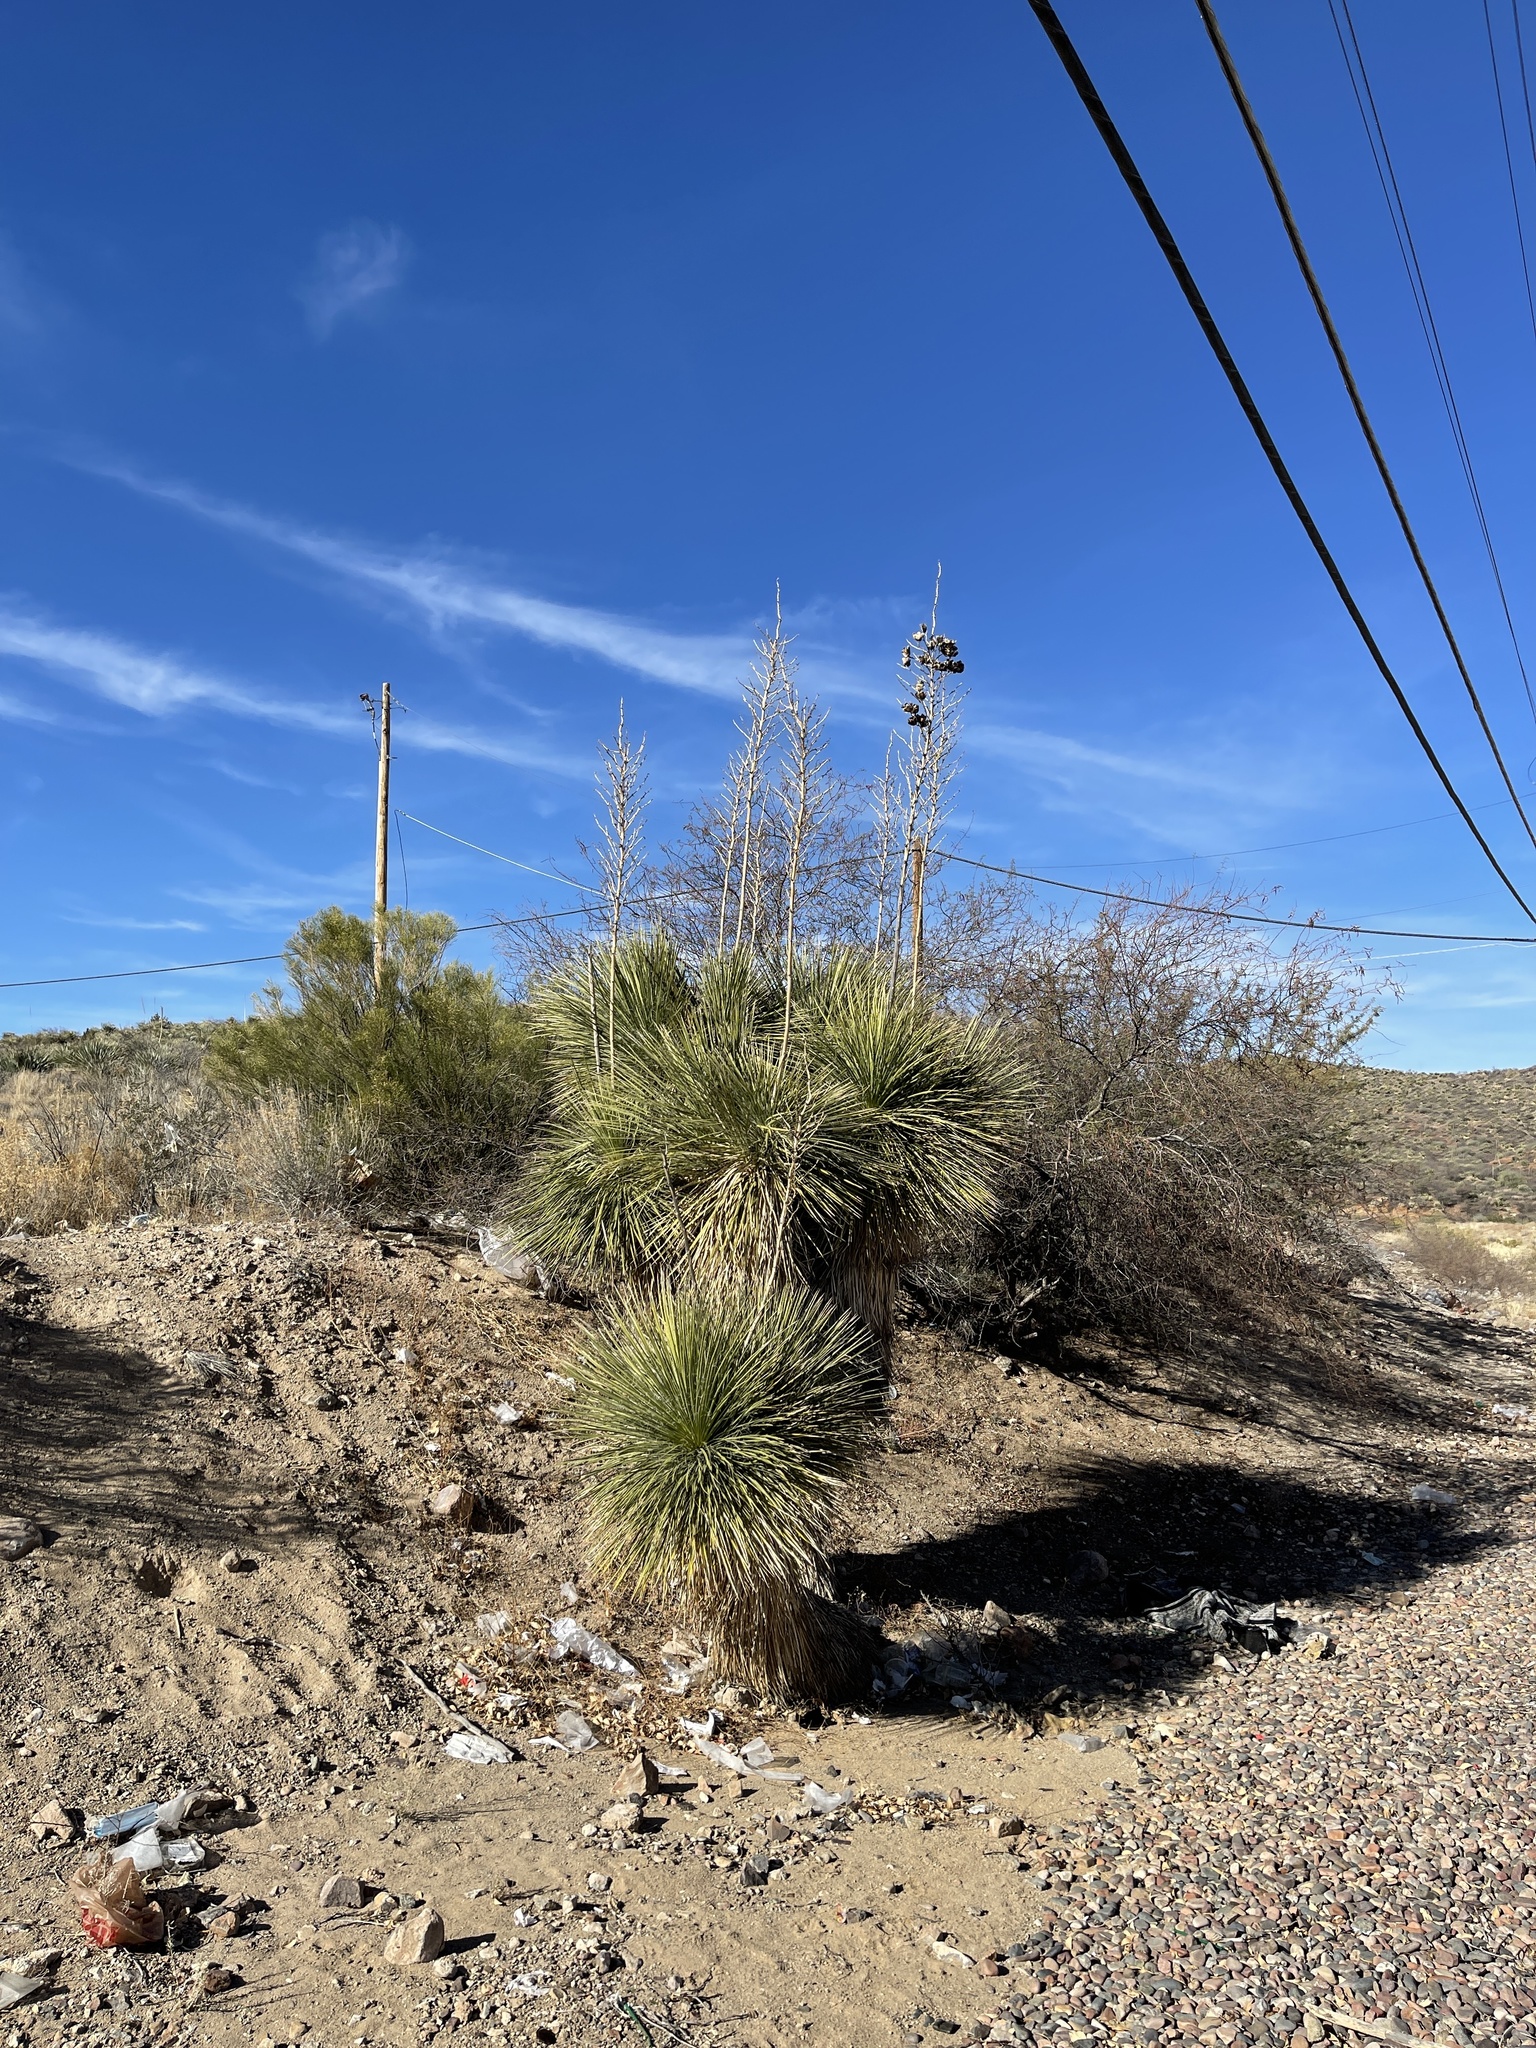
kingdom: Plantae
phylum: Tracheophyta
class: Liliopsida
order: Asparagales
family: Asparagaceae
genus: Yucca
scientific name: Yucca elata
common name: Palmella
